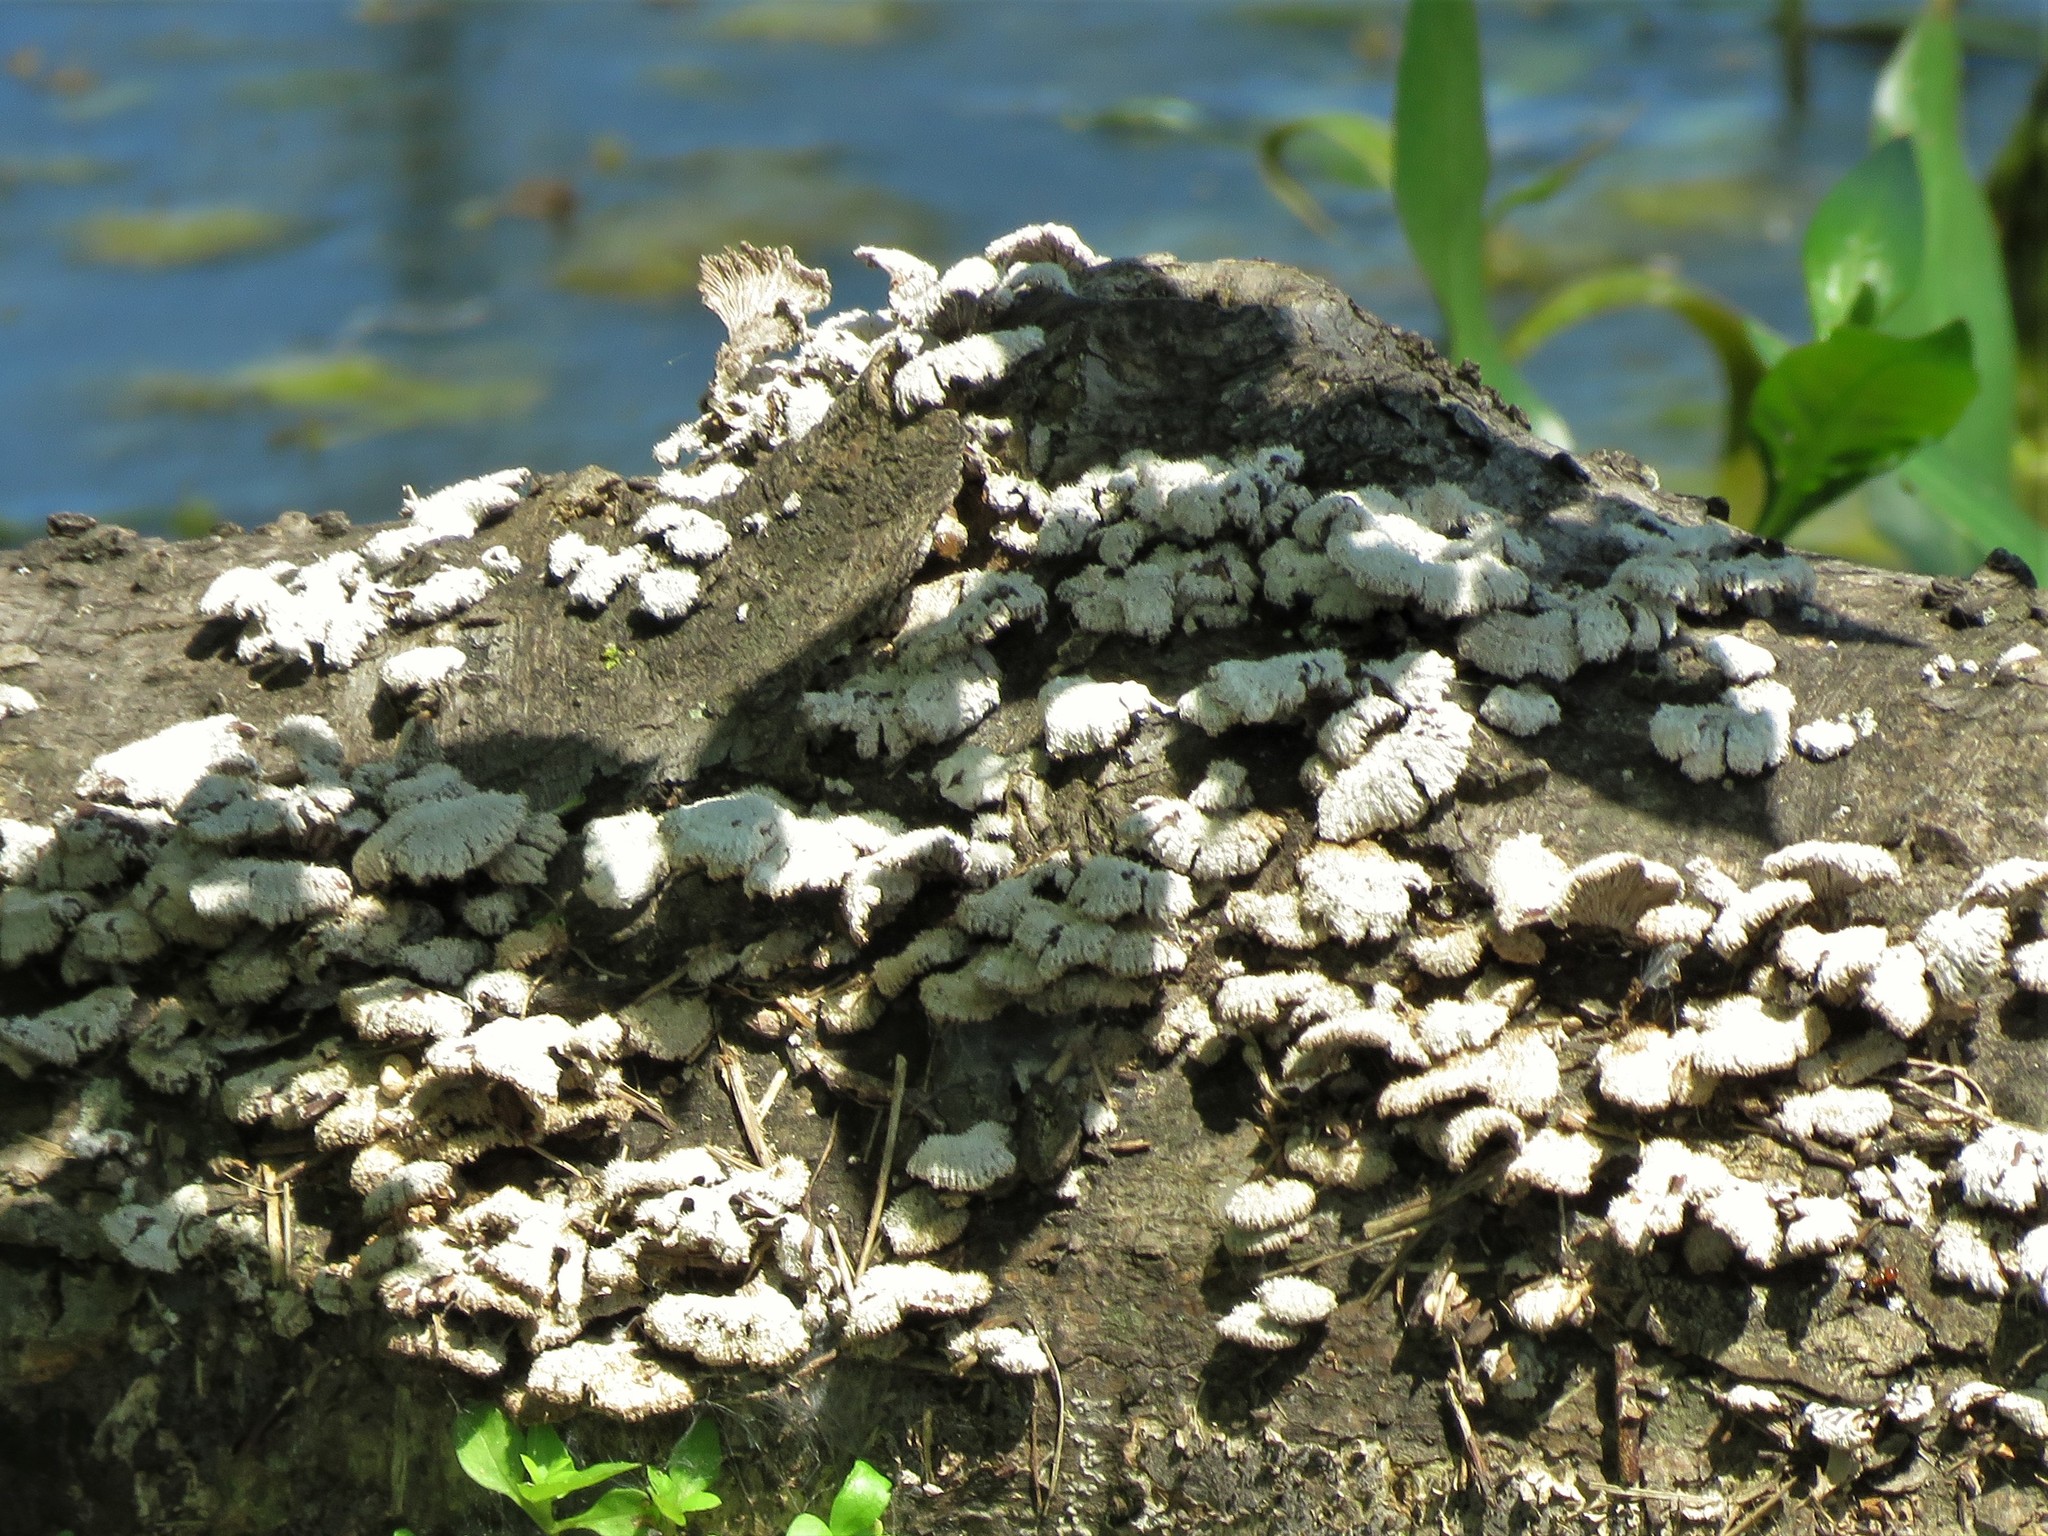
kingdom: Fungi
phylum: Basidiomycota
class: Agaricomycetes
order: Agaricales
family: Schizophyllaceae
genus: Schizophyllum
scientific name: Schizophyllum commune
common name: Common porecrust
